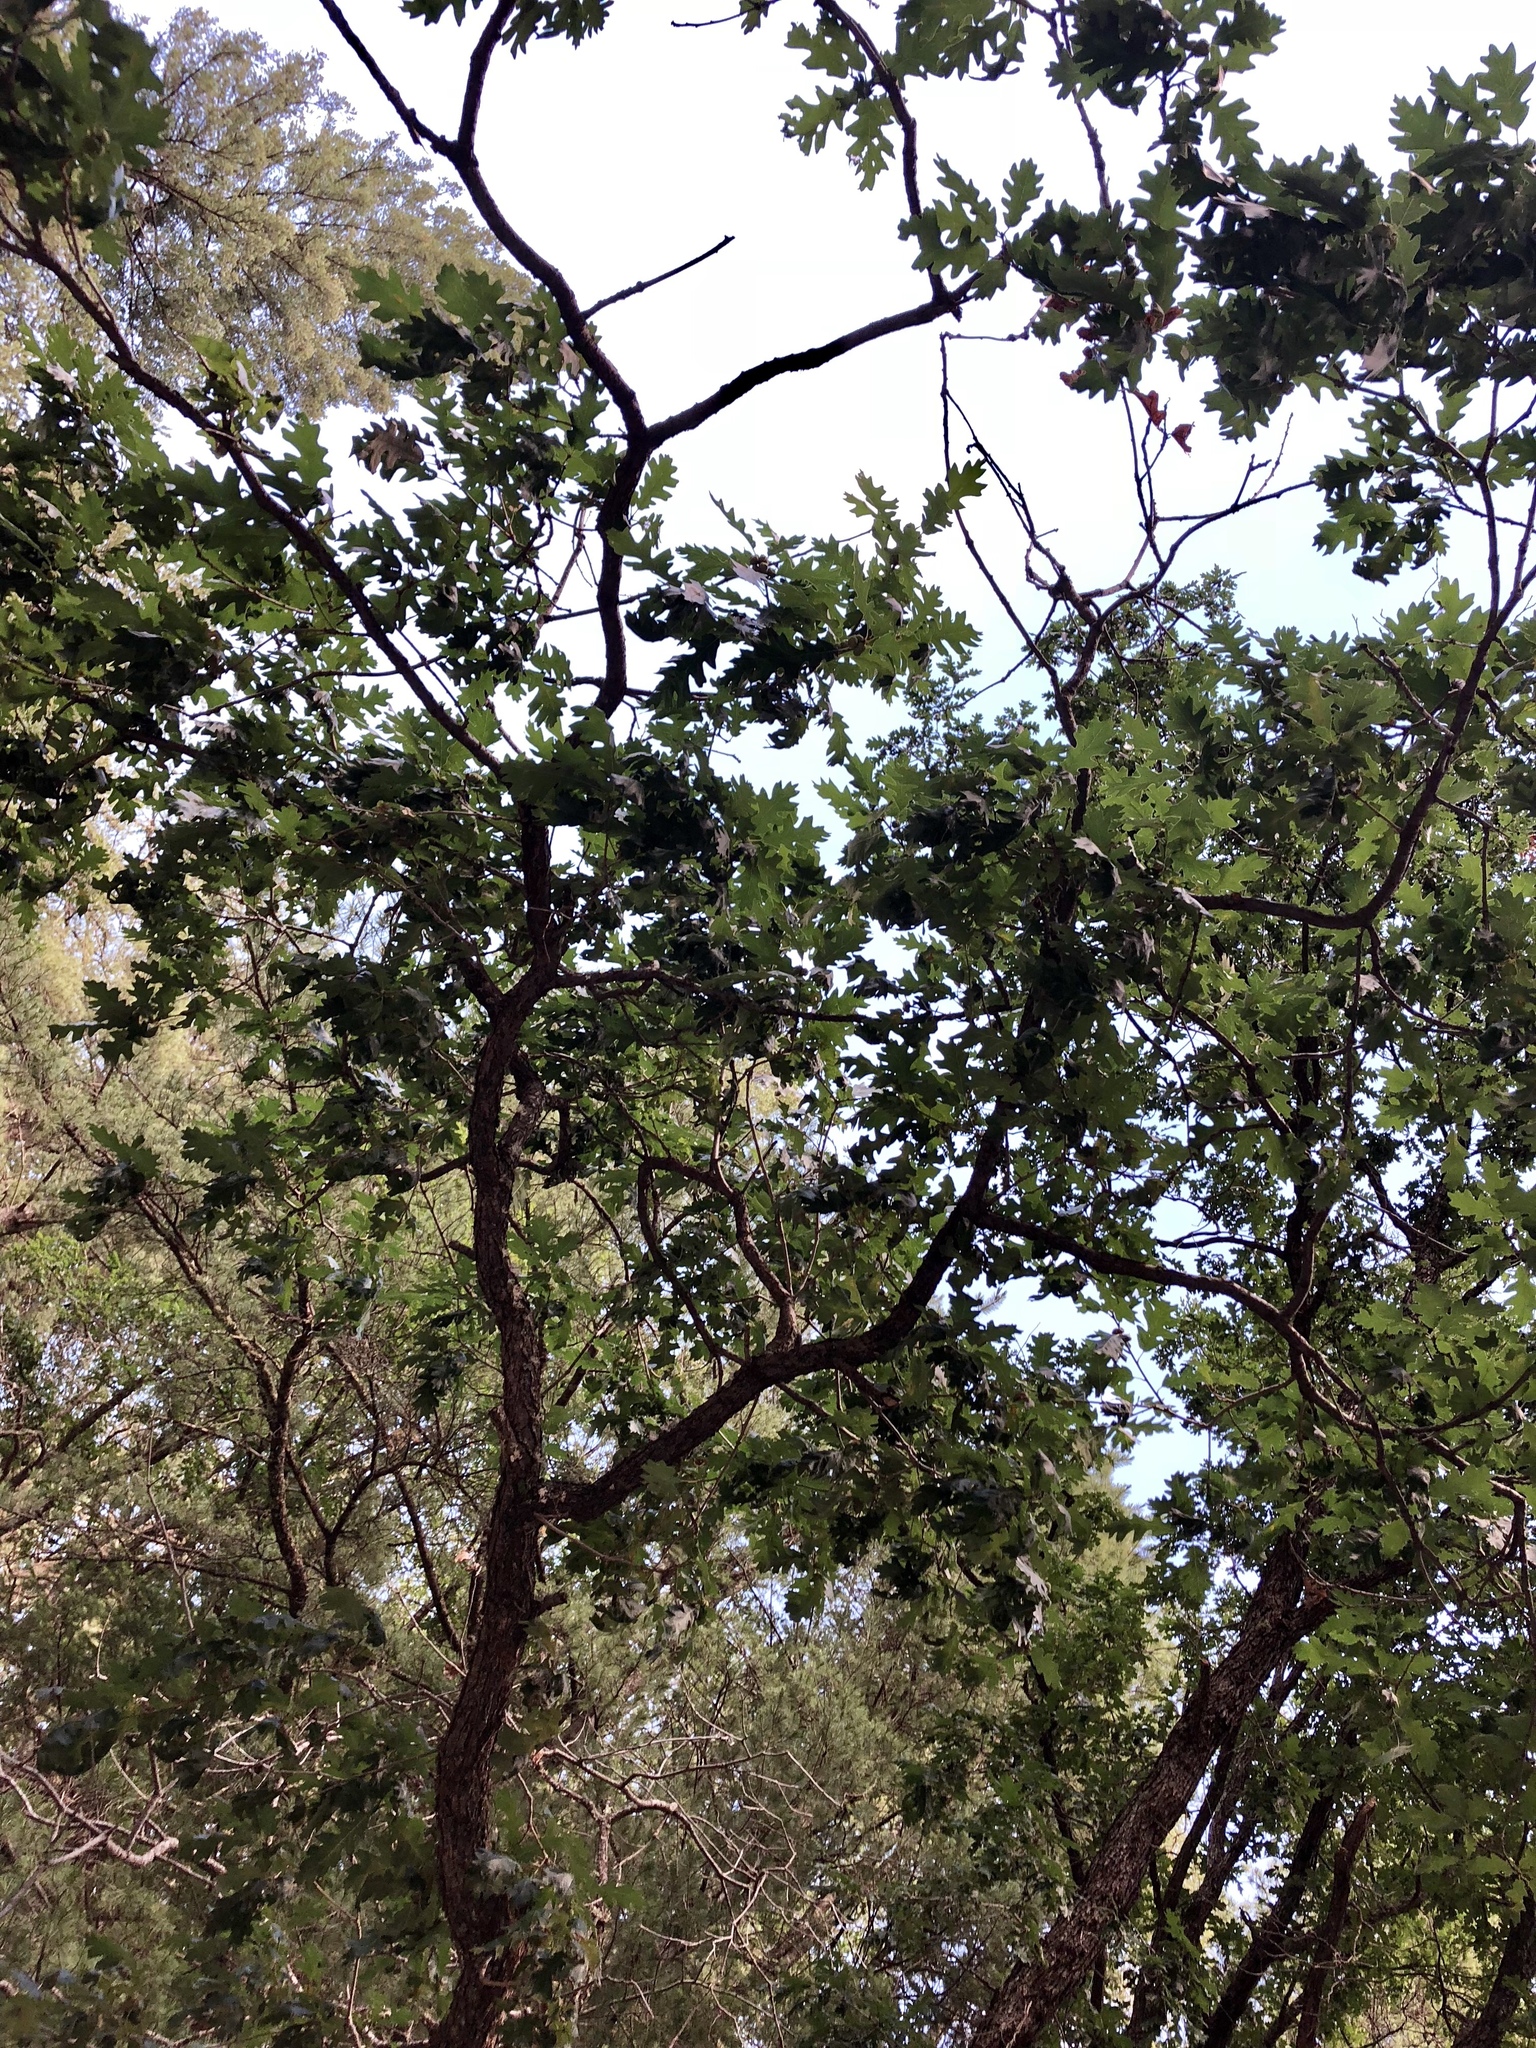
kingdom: Plantae
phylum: Tracheophyta
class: Magnoliopsida
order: Fagales
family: Fagaceae
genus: Quercus
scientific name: Quercus gambelii
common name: Gambel oak
